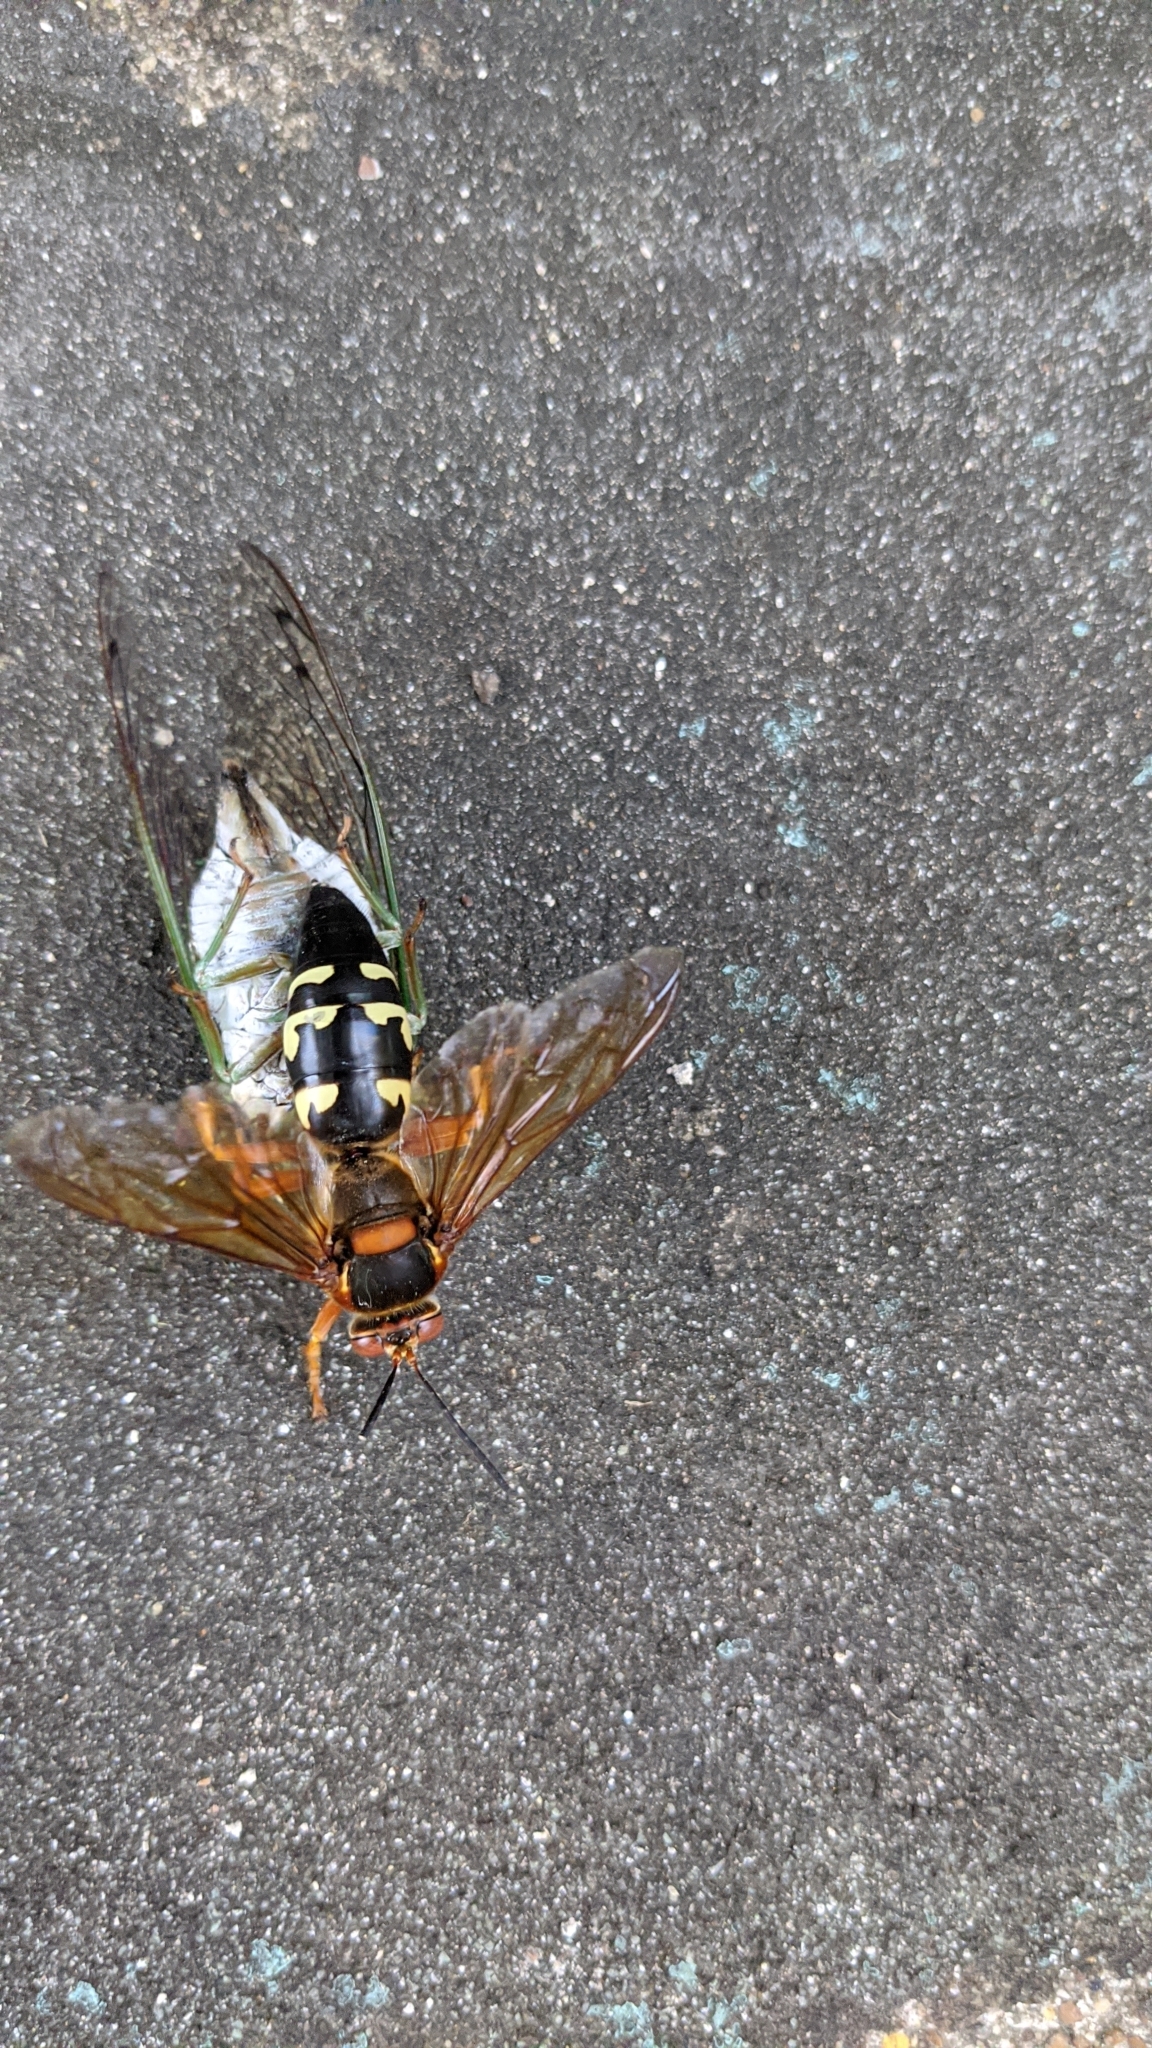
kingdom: Animalia
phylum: Arthropoda
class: Insecta
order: Hymenoptera
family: Crabronidae
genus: Sphecius
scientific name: Sphecius speciosus
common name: Cicada killer
